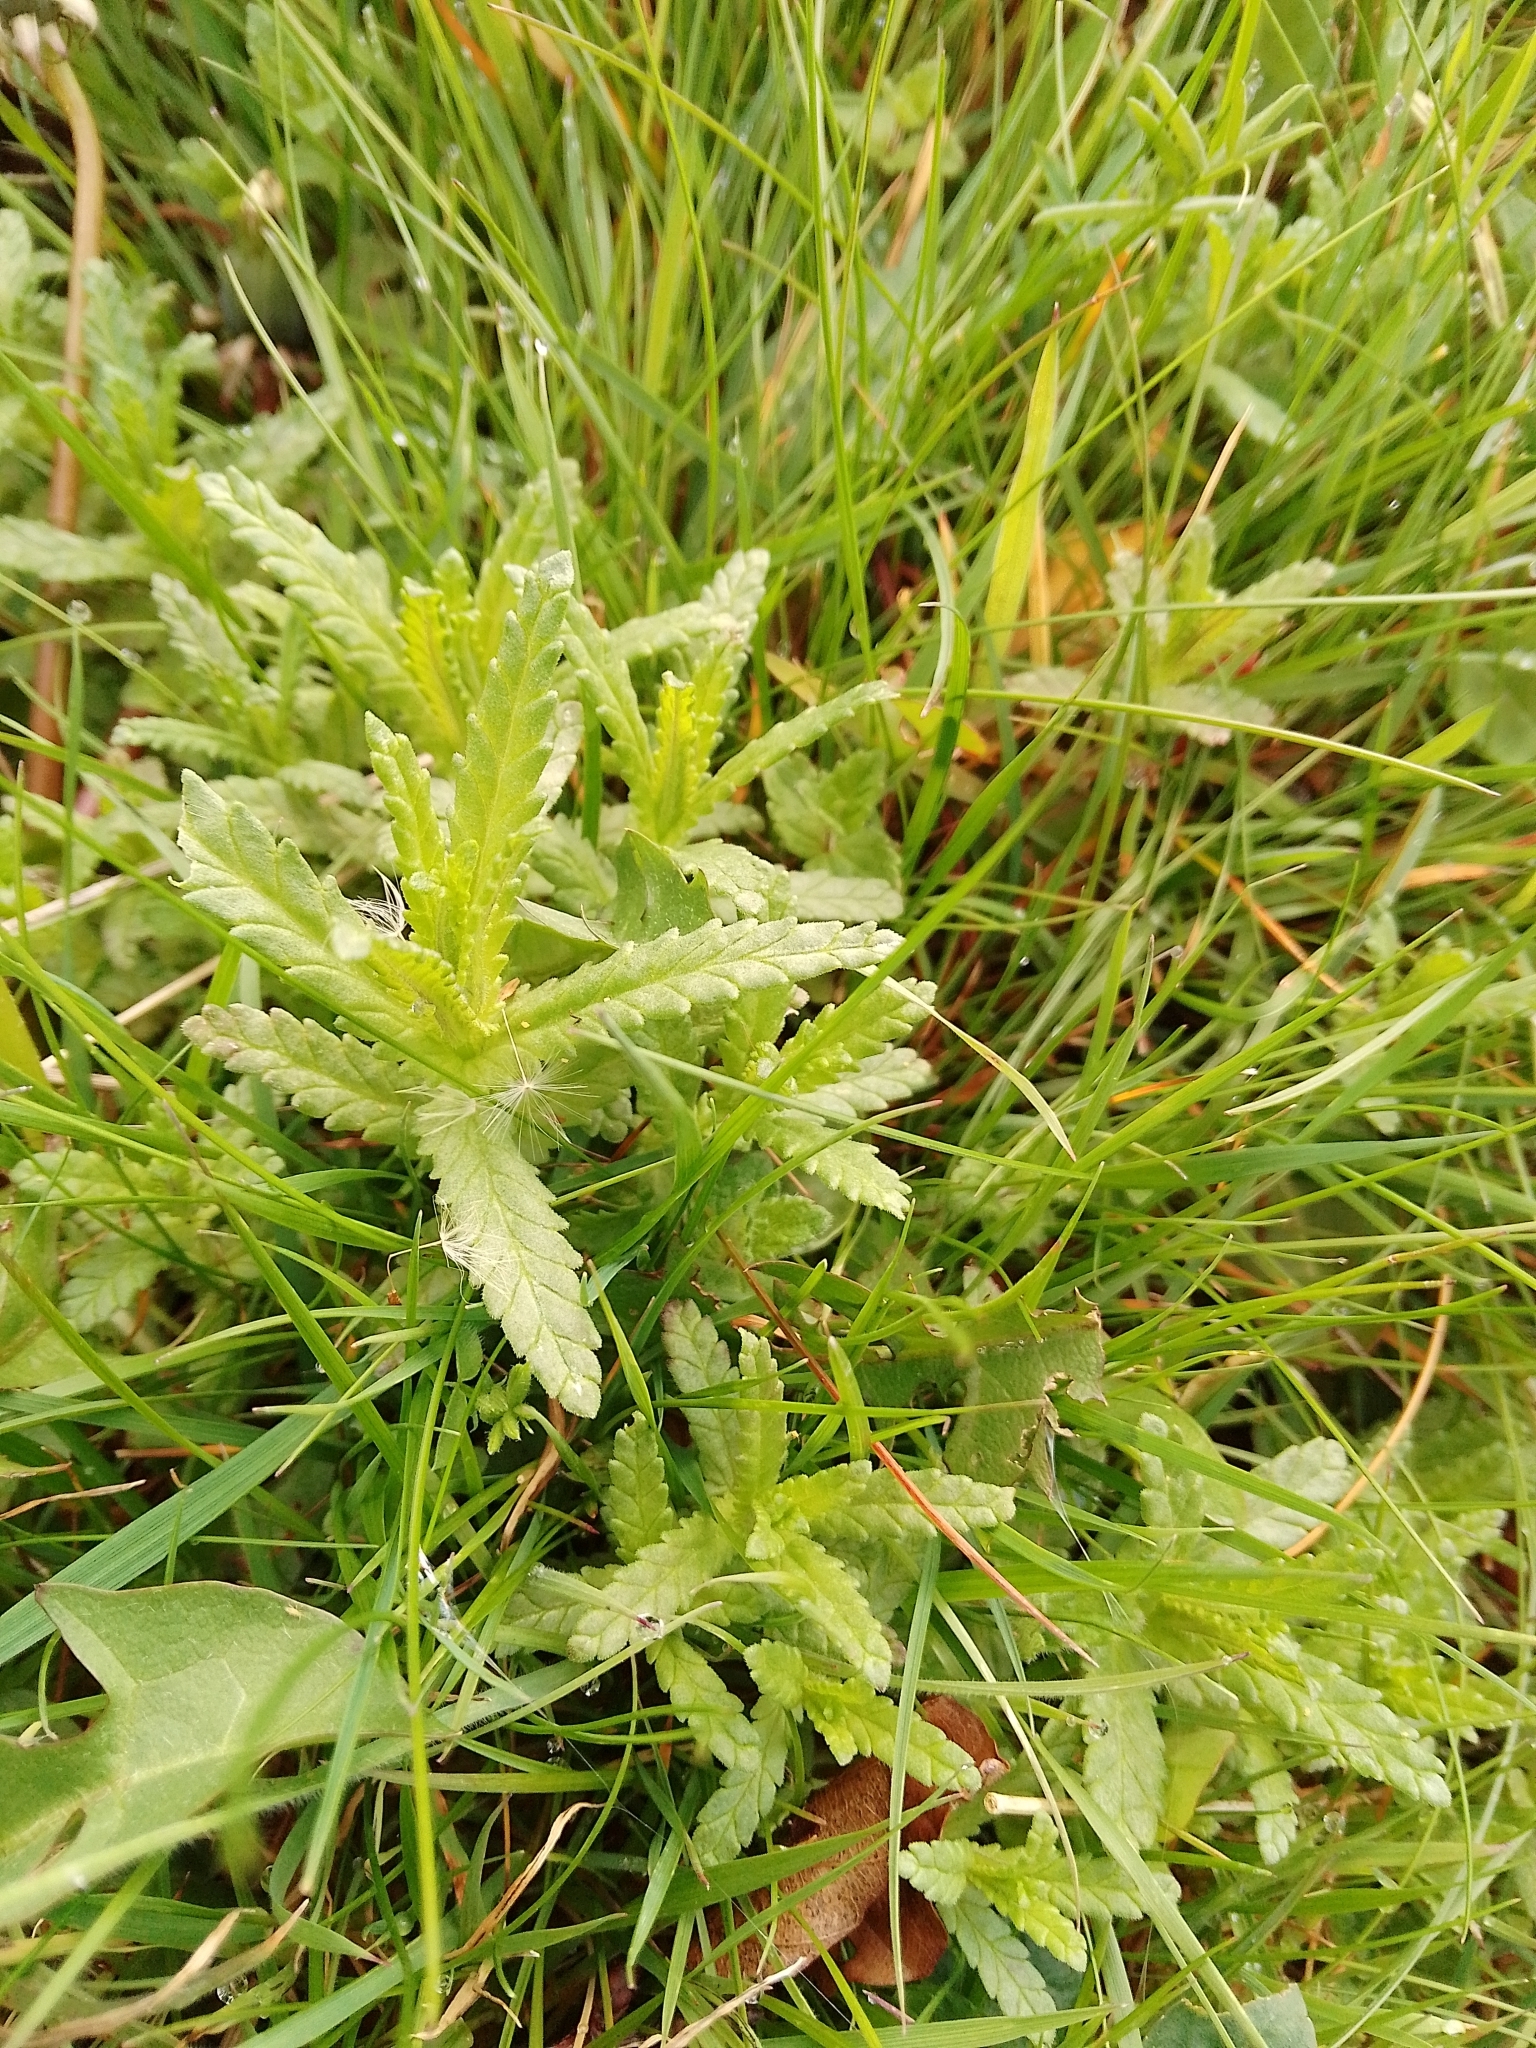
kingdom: Plantae
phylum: Tracheophyta
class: Magnoliopsida
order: Lamiales
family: Orobanchaceae
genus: Rhinanthus
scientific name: Rhinanthus minor
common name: Yellow-rattle
